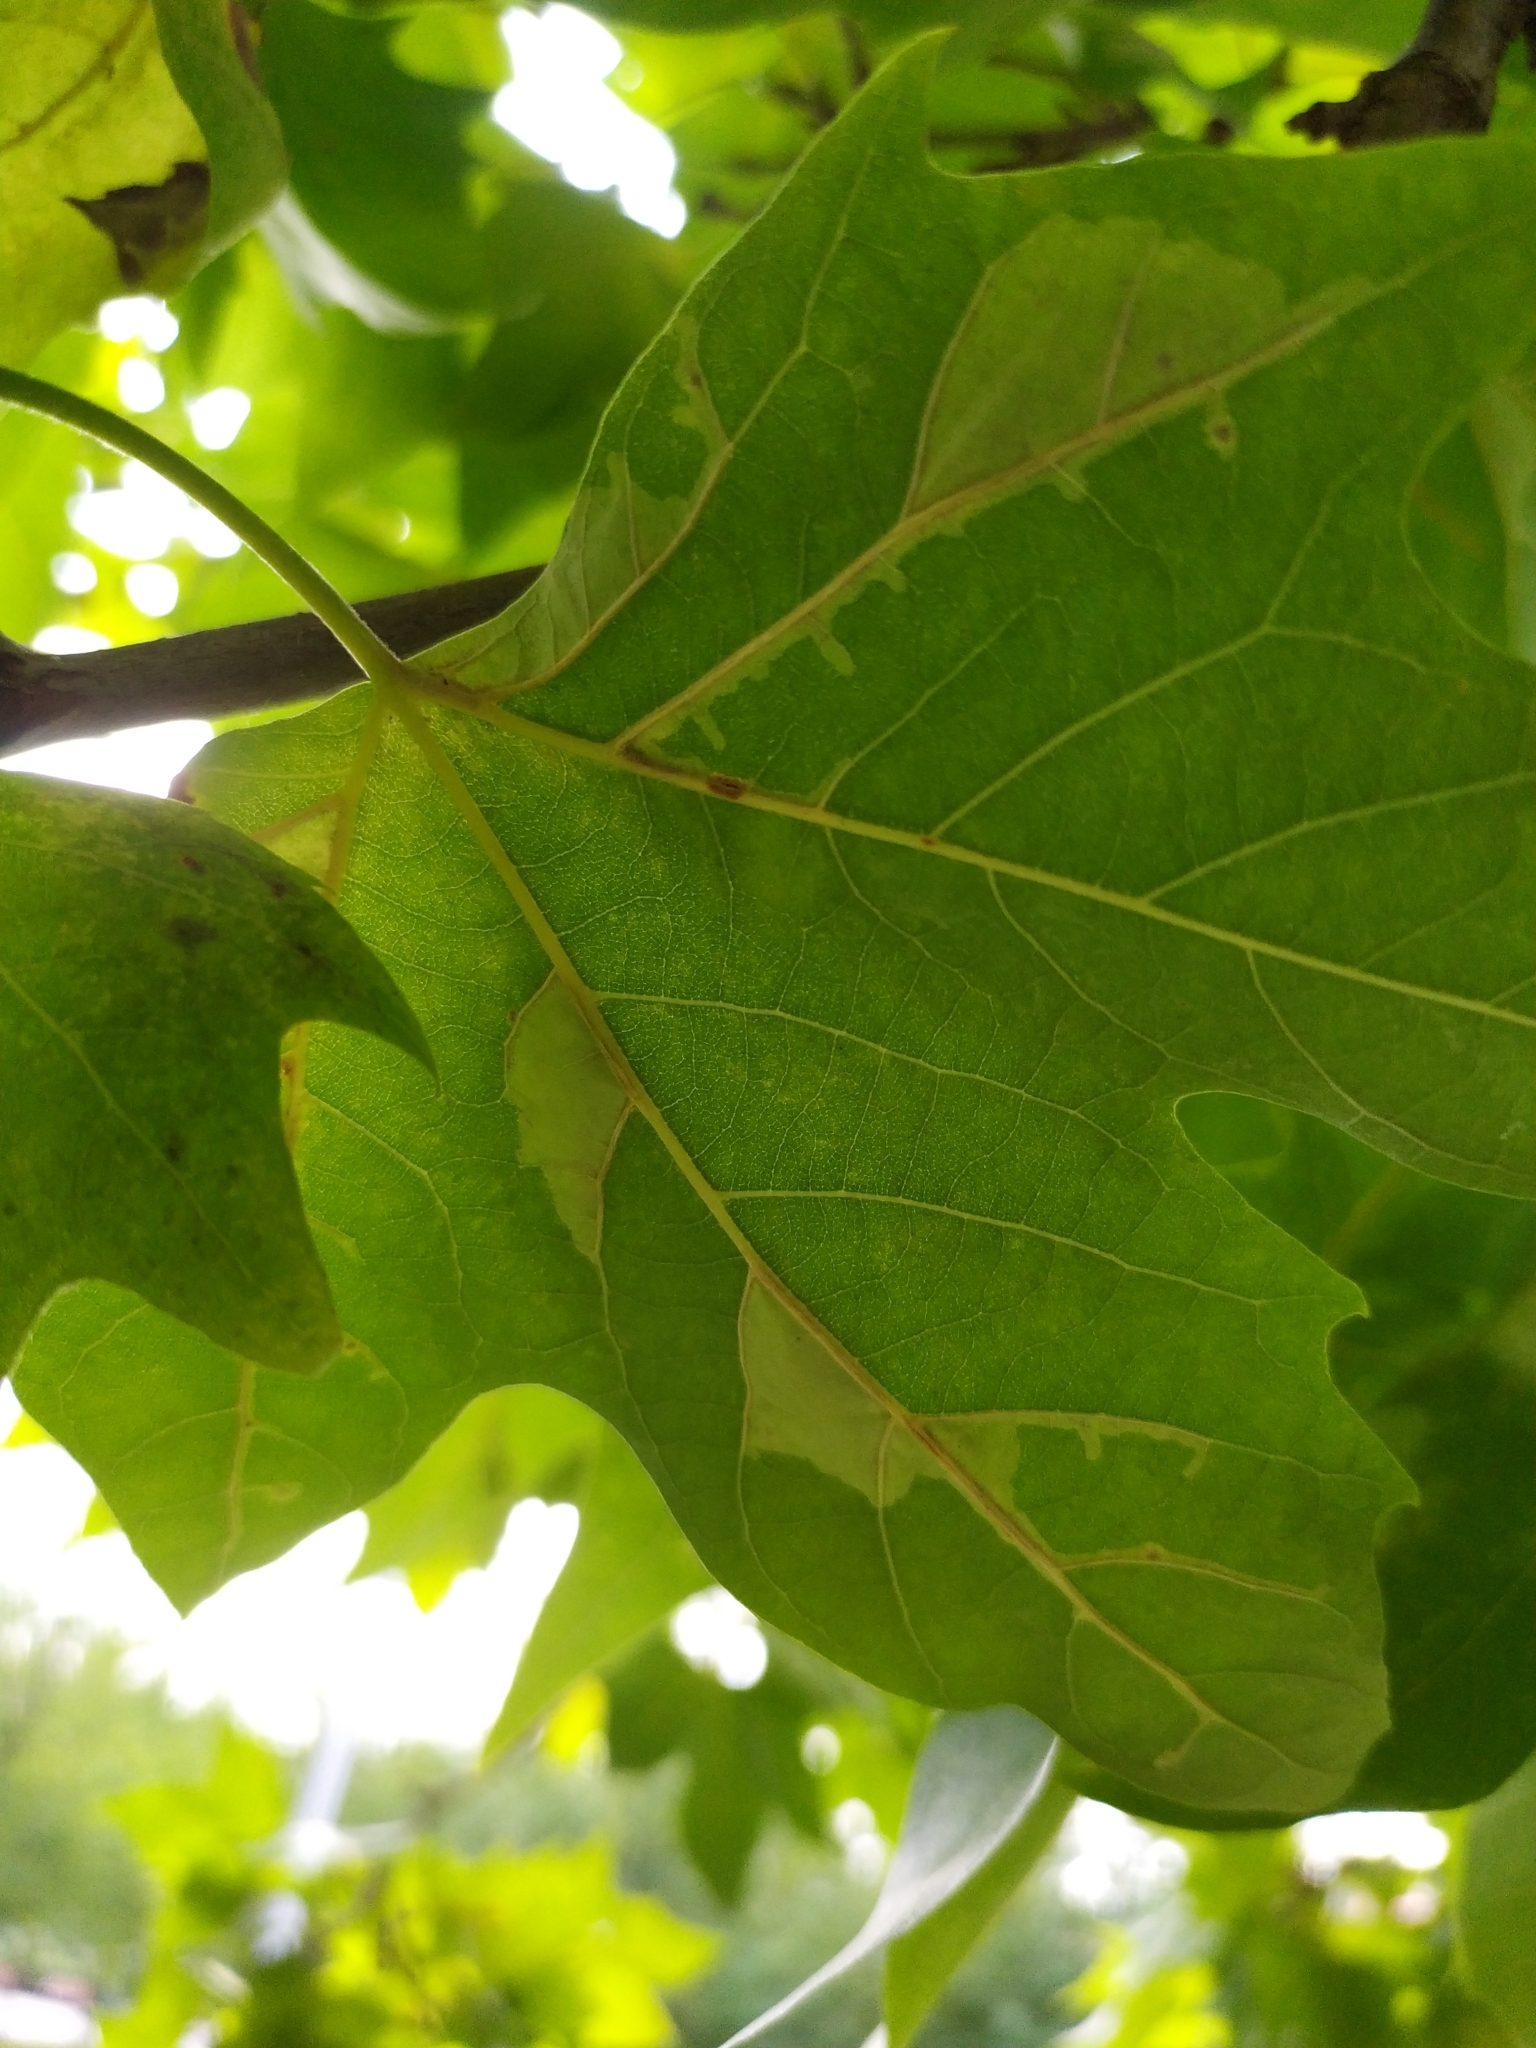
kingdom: Animalia
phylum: Arthropoda
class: Insecta
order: Lepidoptera
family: Gracillariidae
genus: Phyllonorycter
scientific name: Phyllonorycter platani
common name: London midget
